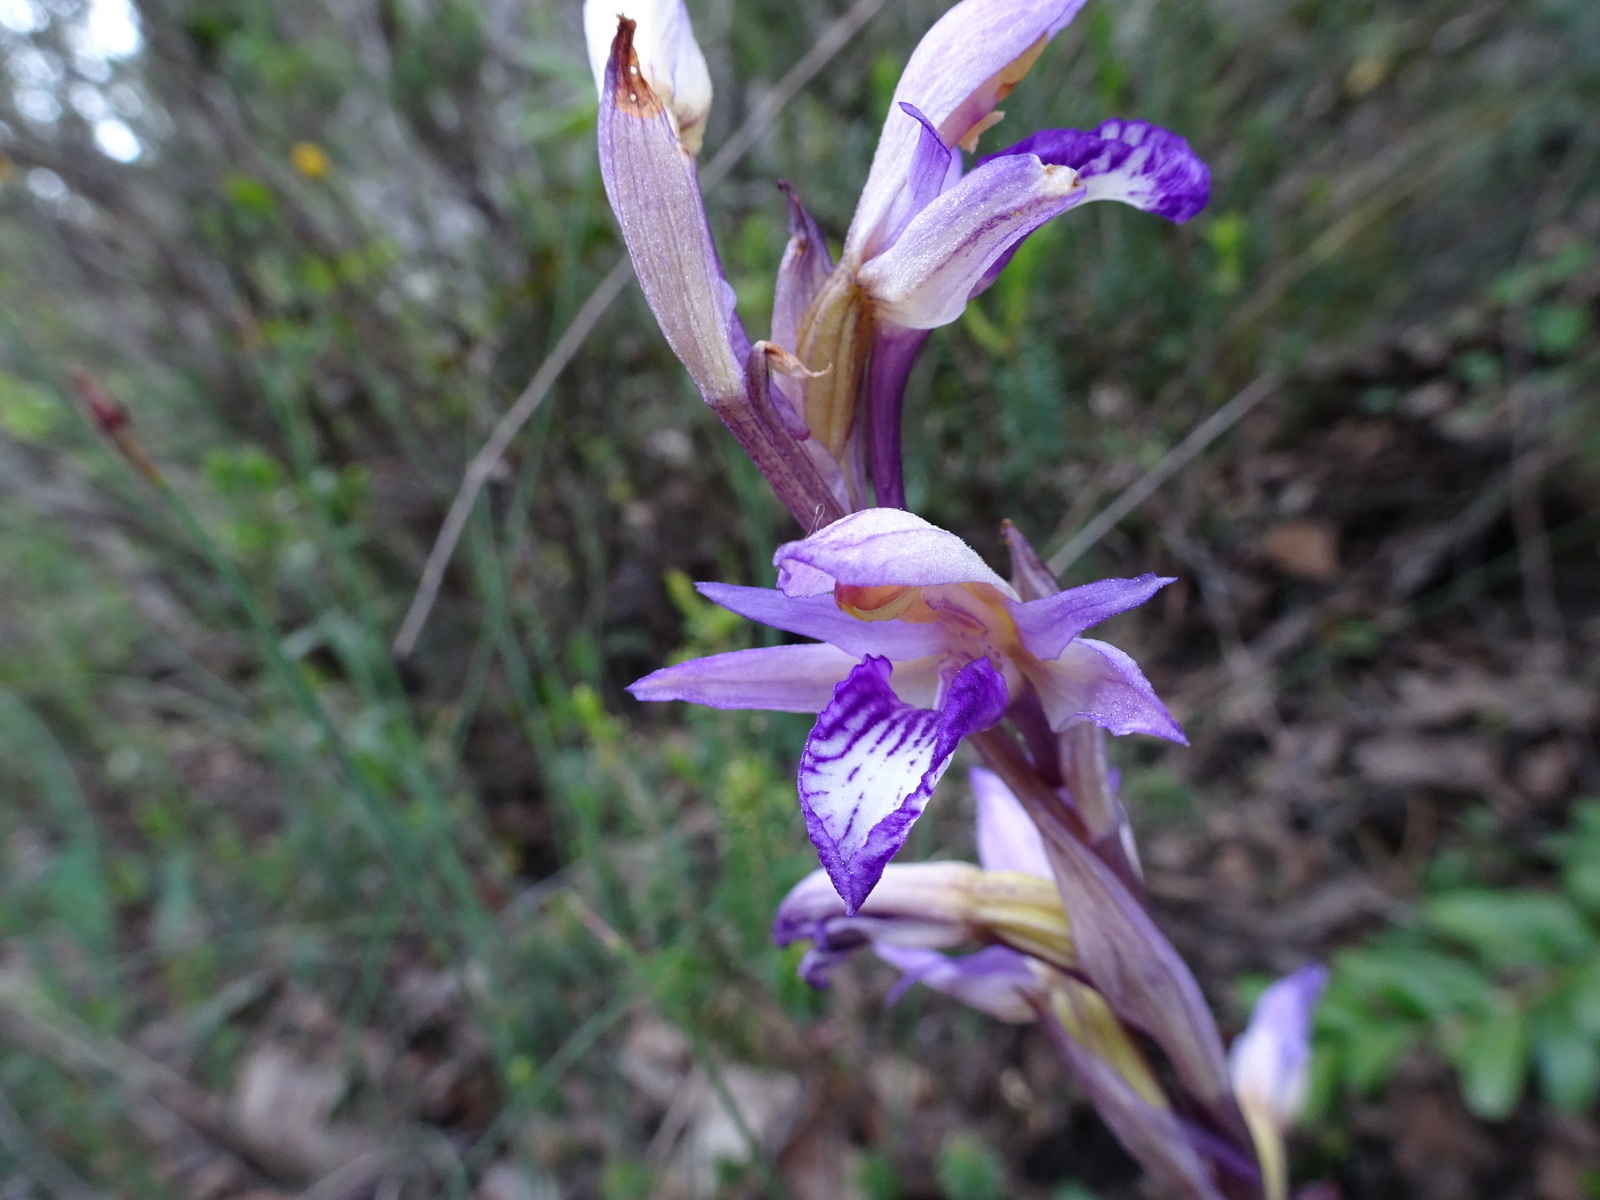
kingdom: Plantae
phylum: Tracheophyta
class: Liliopsida
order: Asparagales
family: Orchidaceae
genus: Limodorum
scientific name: Limodorum abortivum
